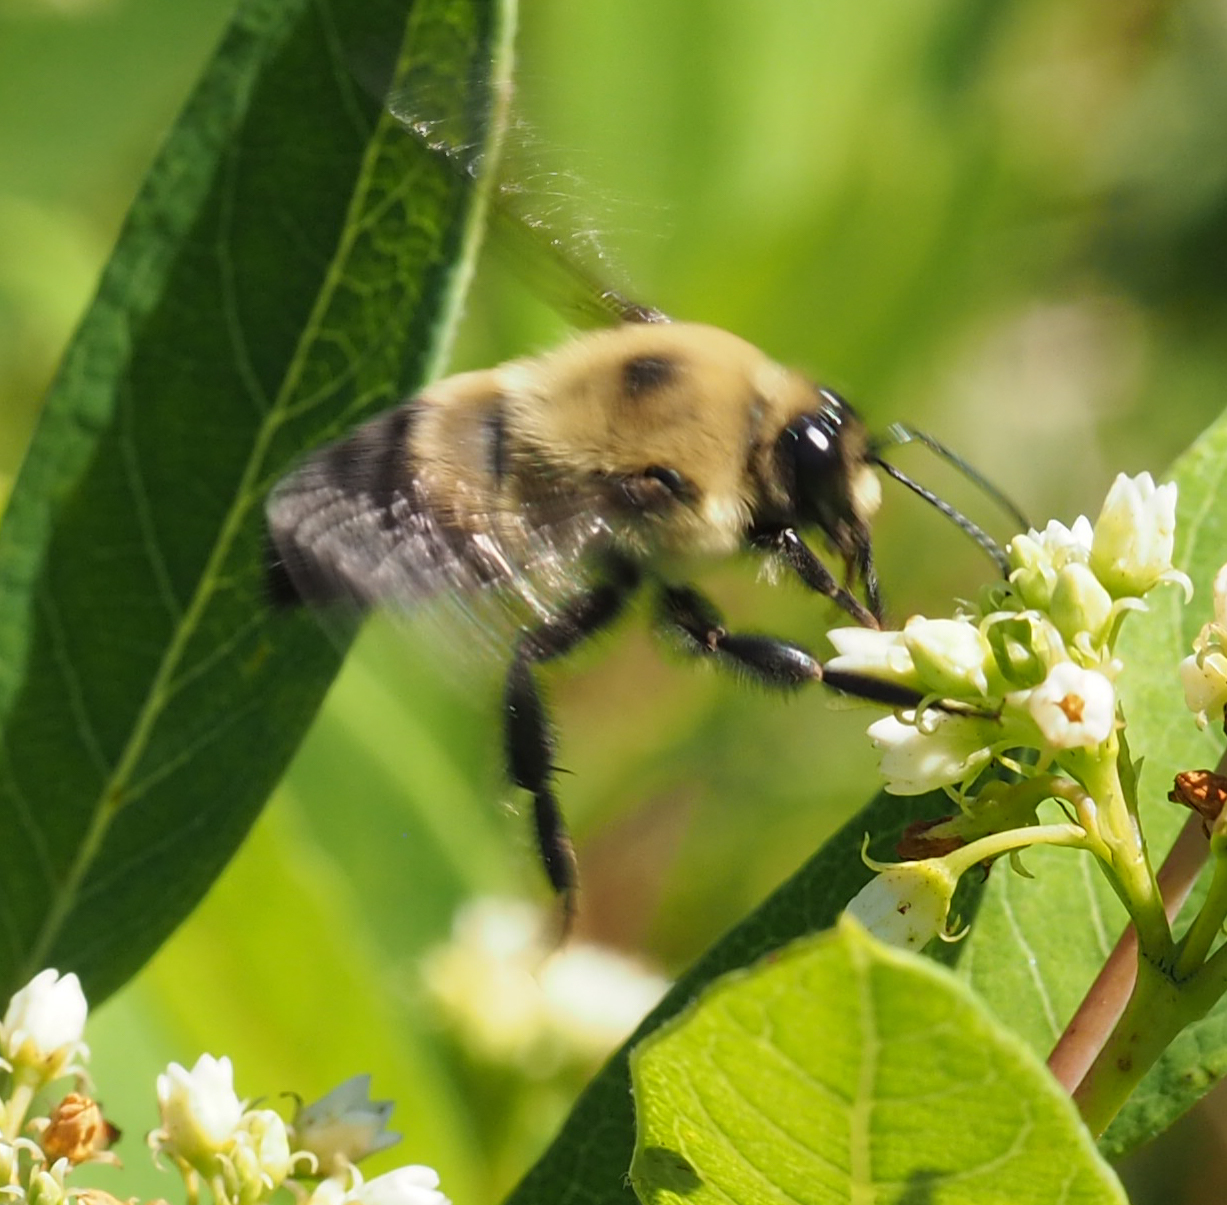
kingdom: Animalia
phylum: Arthropoda
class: Insecta
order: Hymenoptera
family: Apidae
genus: Bombus
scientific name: Bombus griseocollis
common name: Brown-belted bumble bee
